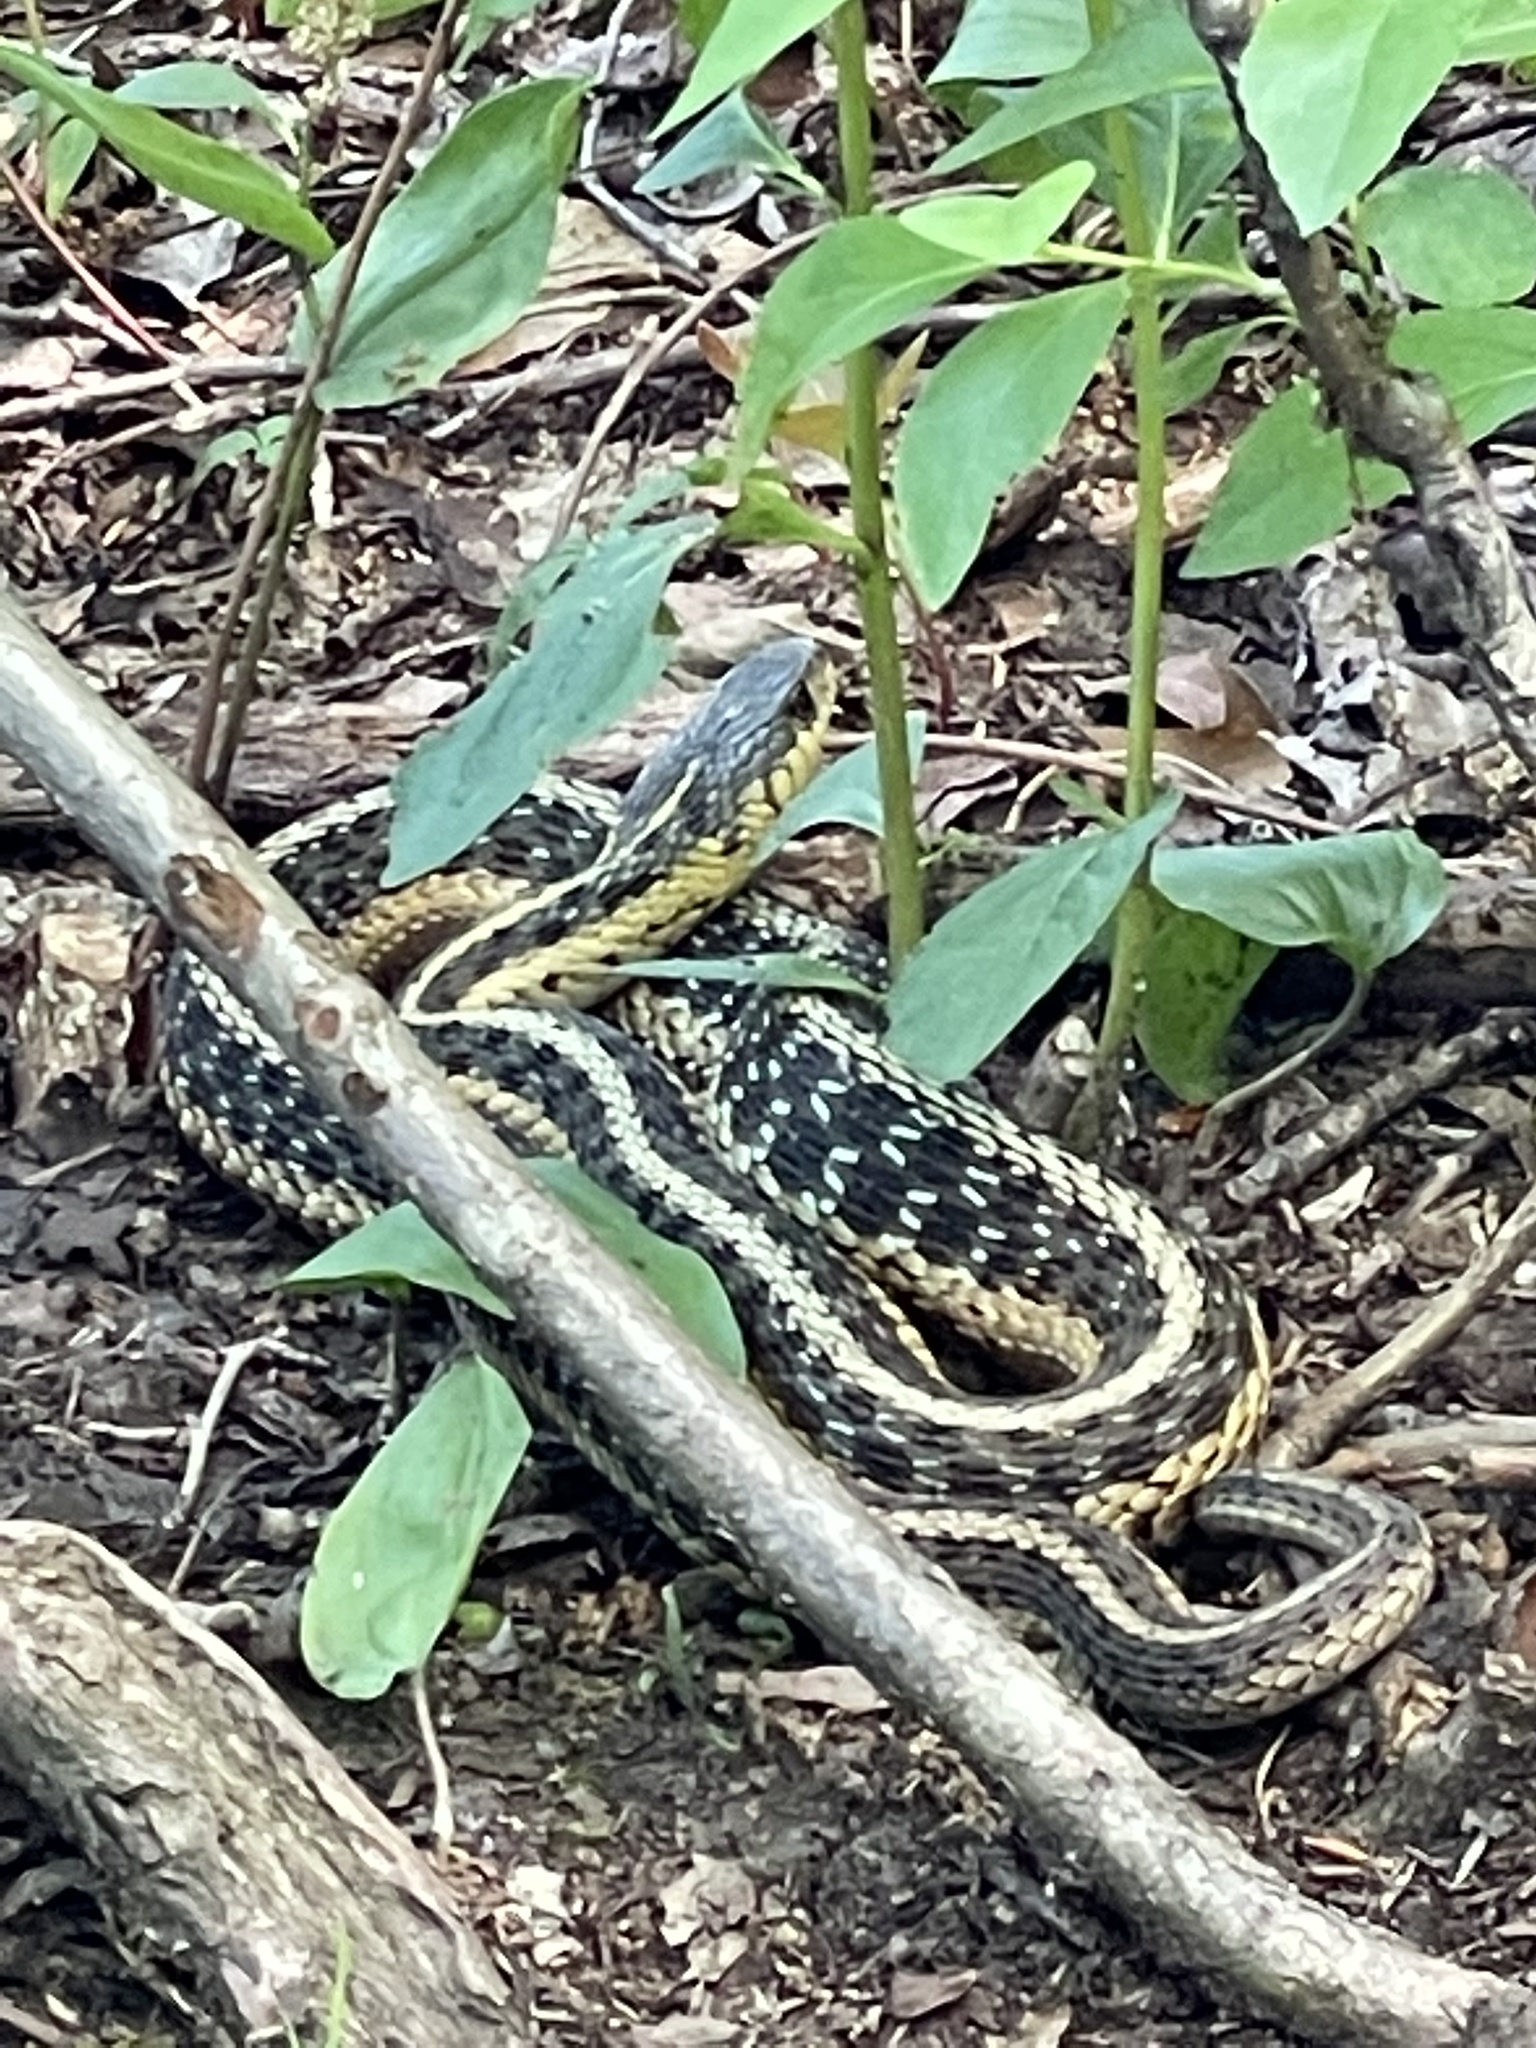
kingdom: Animalia
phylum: Chordata
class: Squamata
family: Colubridae
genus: Thamnophis
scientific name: Thamnophis sirtalis
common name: Common garter snake
